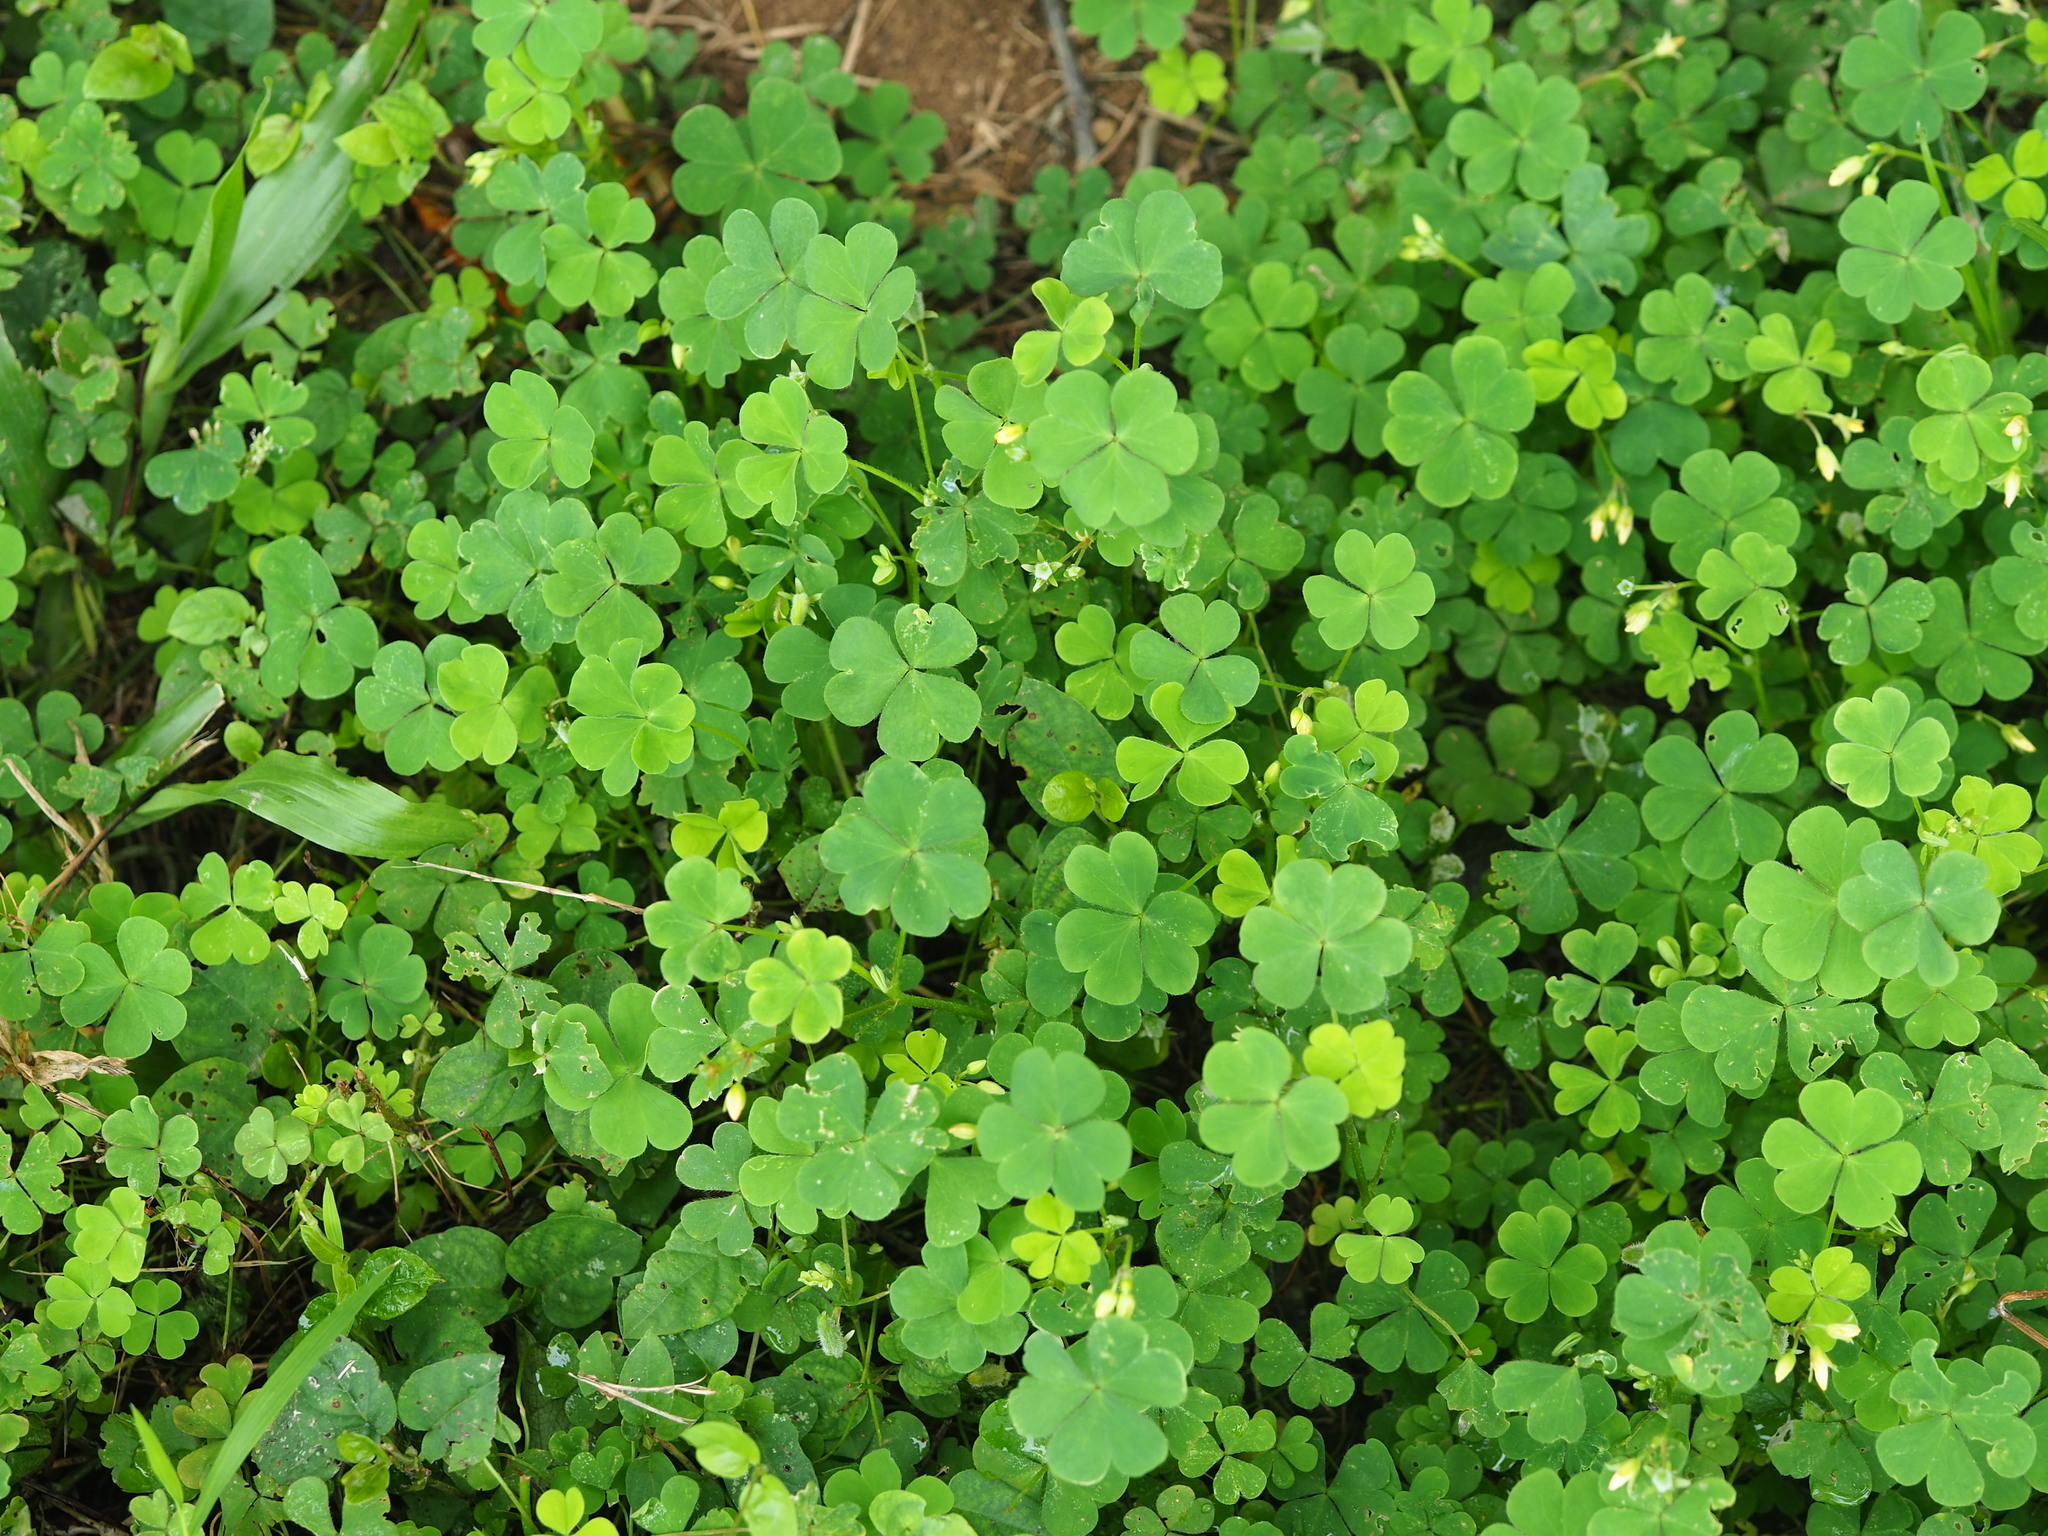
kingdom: Plantae
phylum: Tracheophyta
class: Magnoliopsida
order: Oxalidales
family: Oxalidaceae
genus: Oxalis
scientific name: Oxalis corniculata
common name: Procumbent yellow-sorrel
